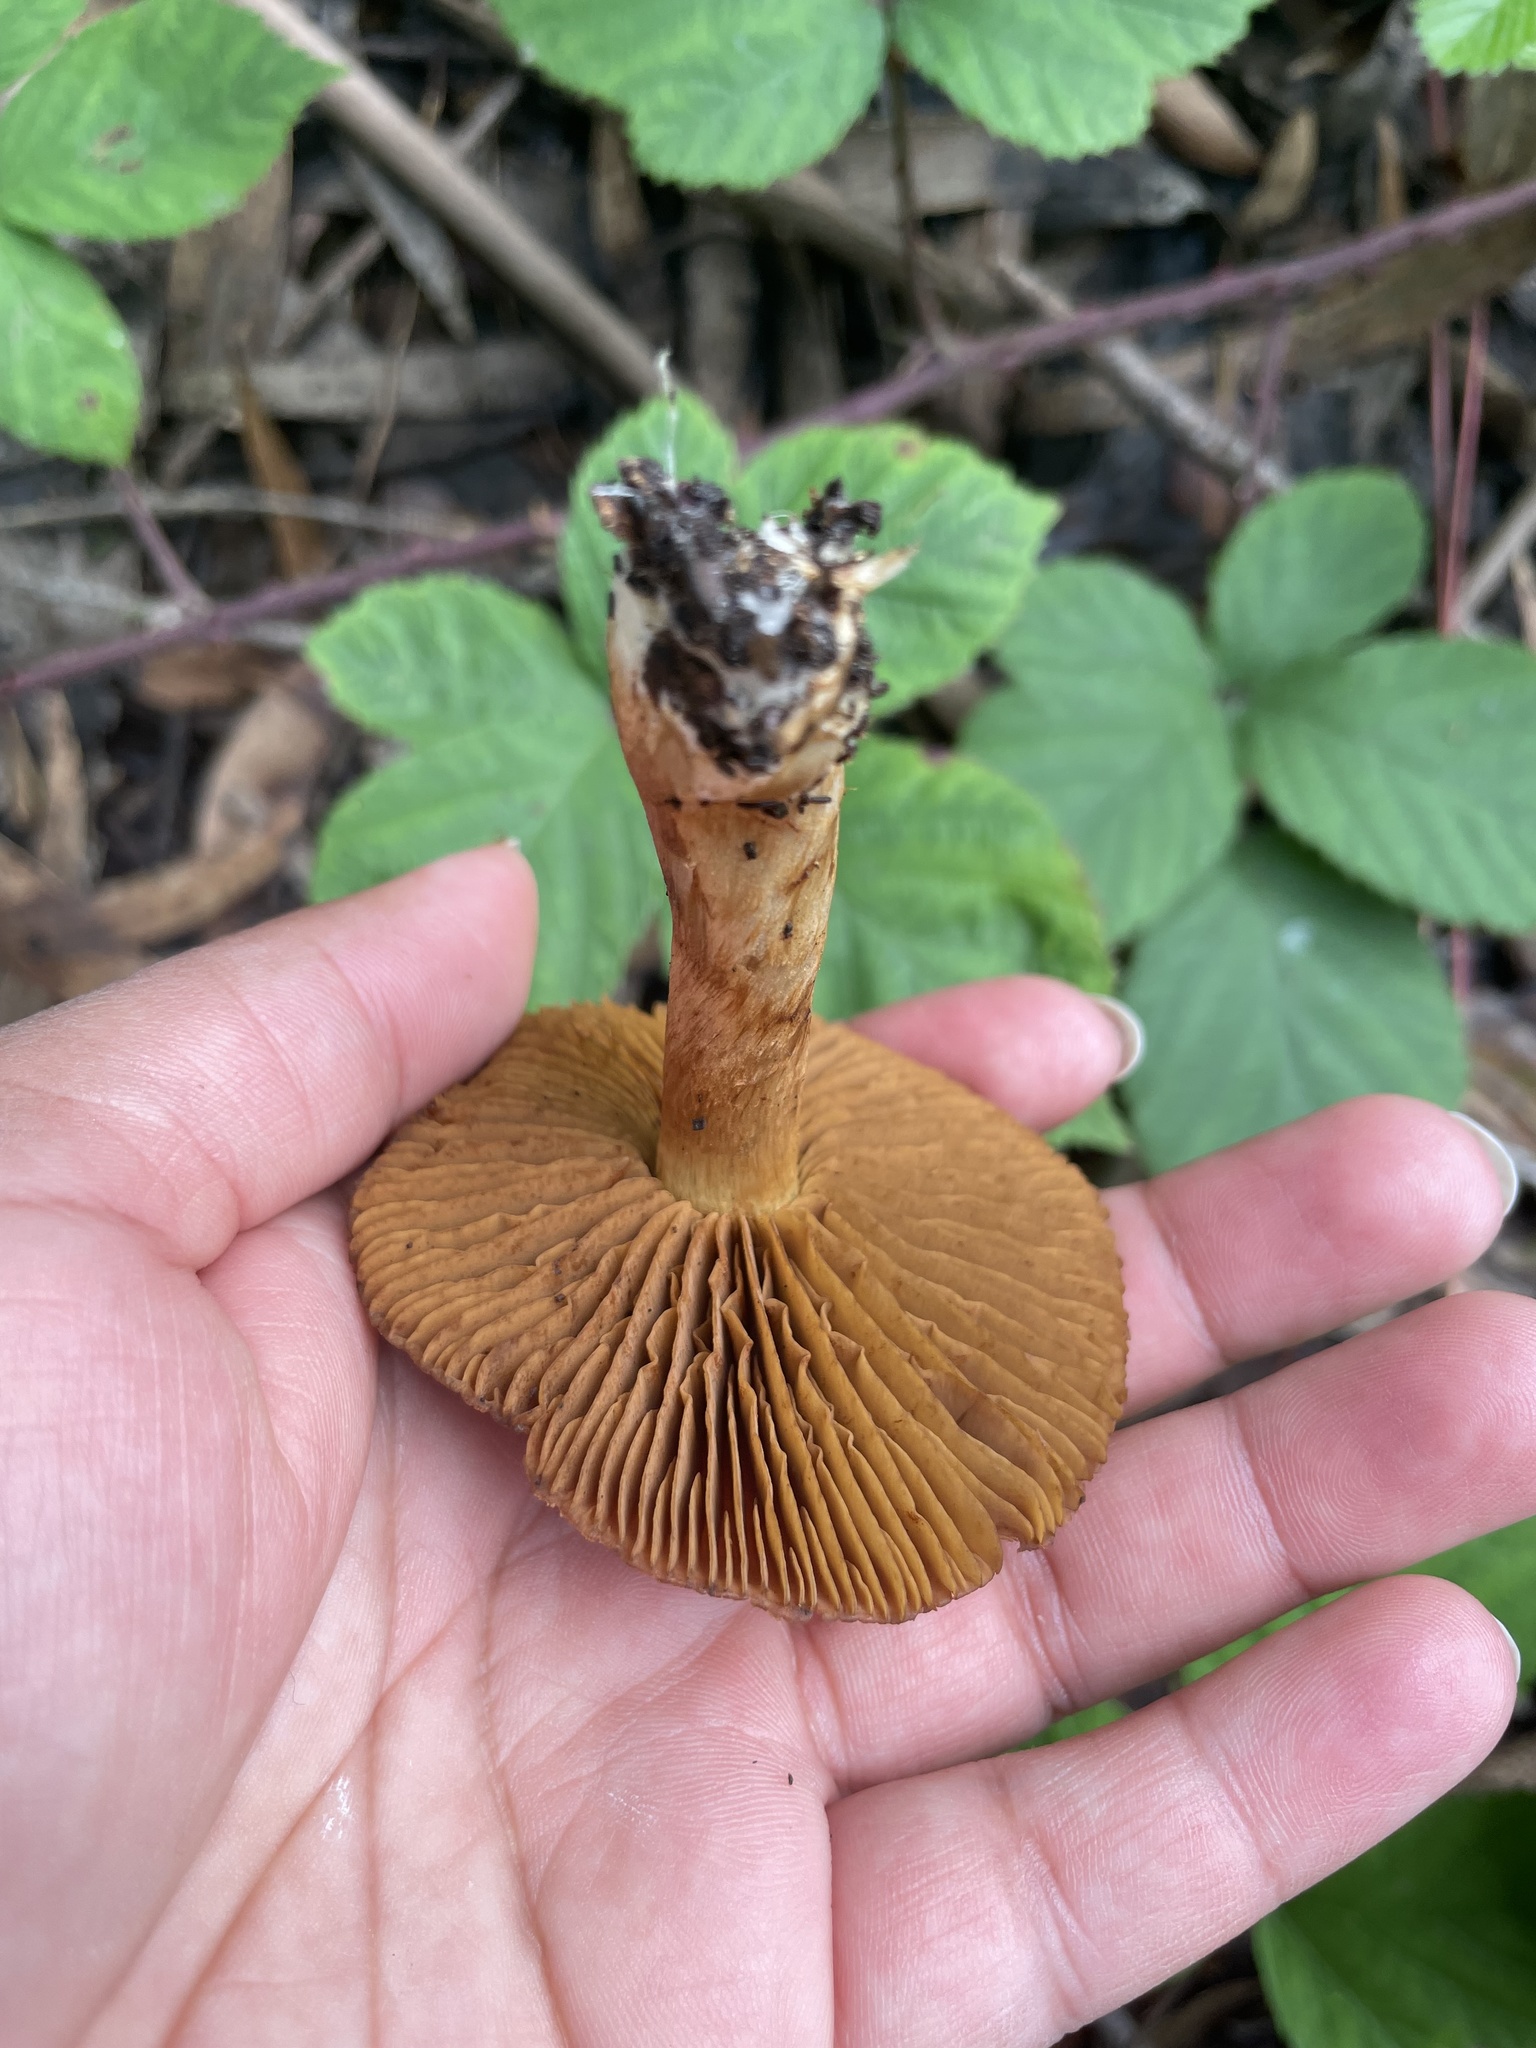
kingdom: Fungi
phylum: Basidiomycota
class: Agaricomycetes
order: Agaricales
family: Cortinariaceae
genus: Cortinarius
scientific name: Cortinarius thiersii
